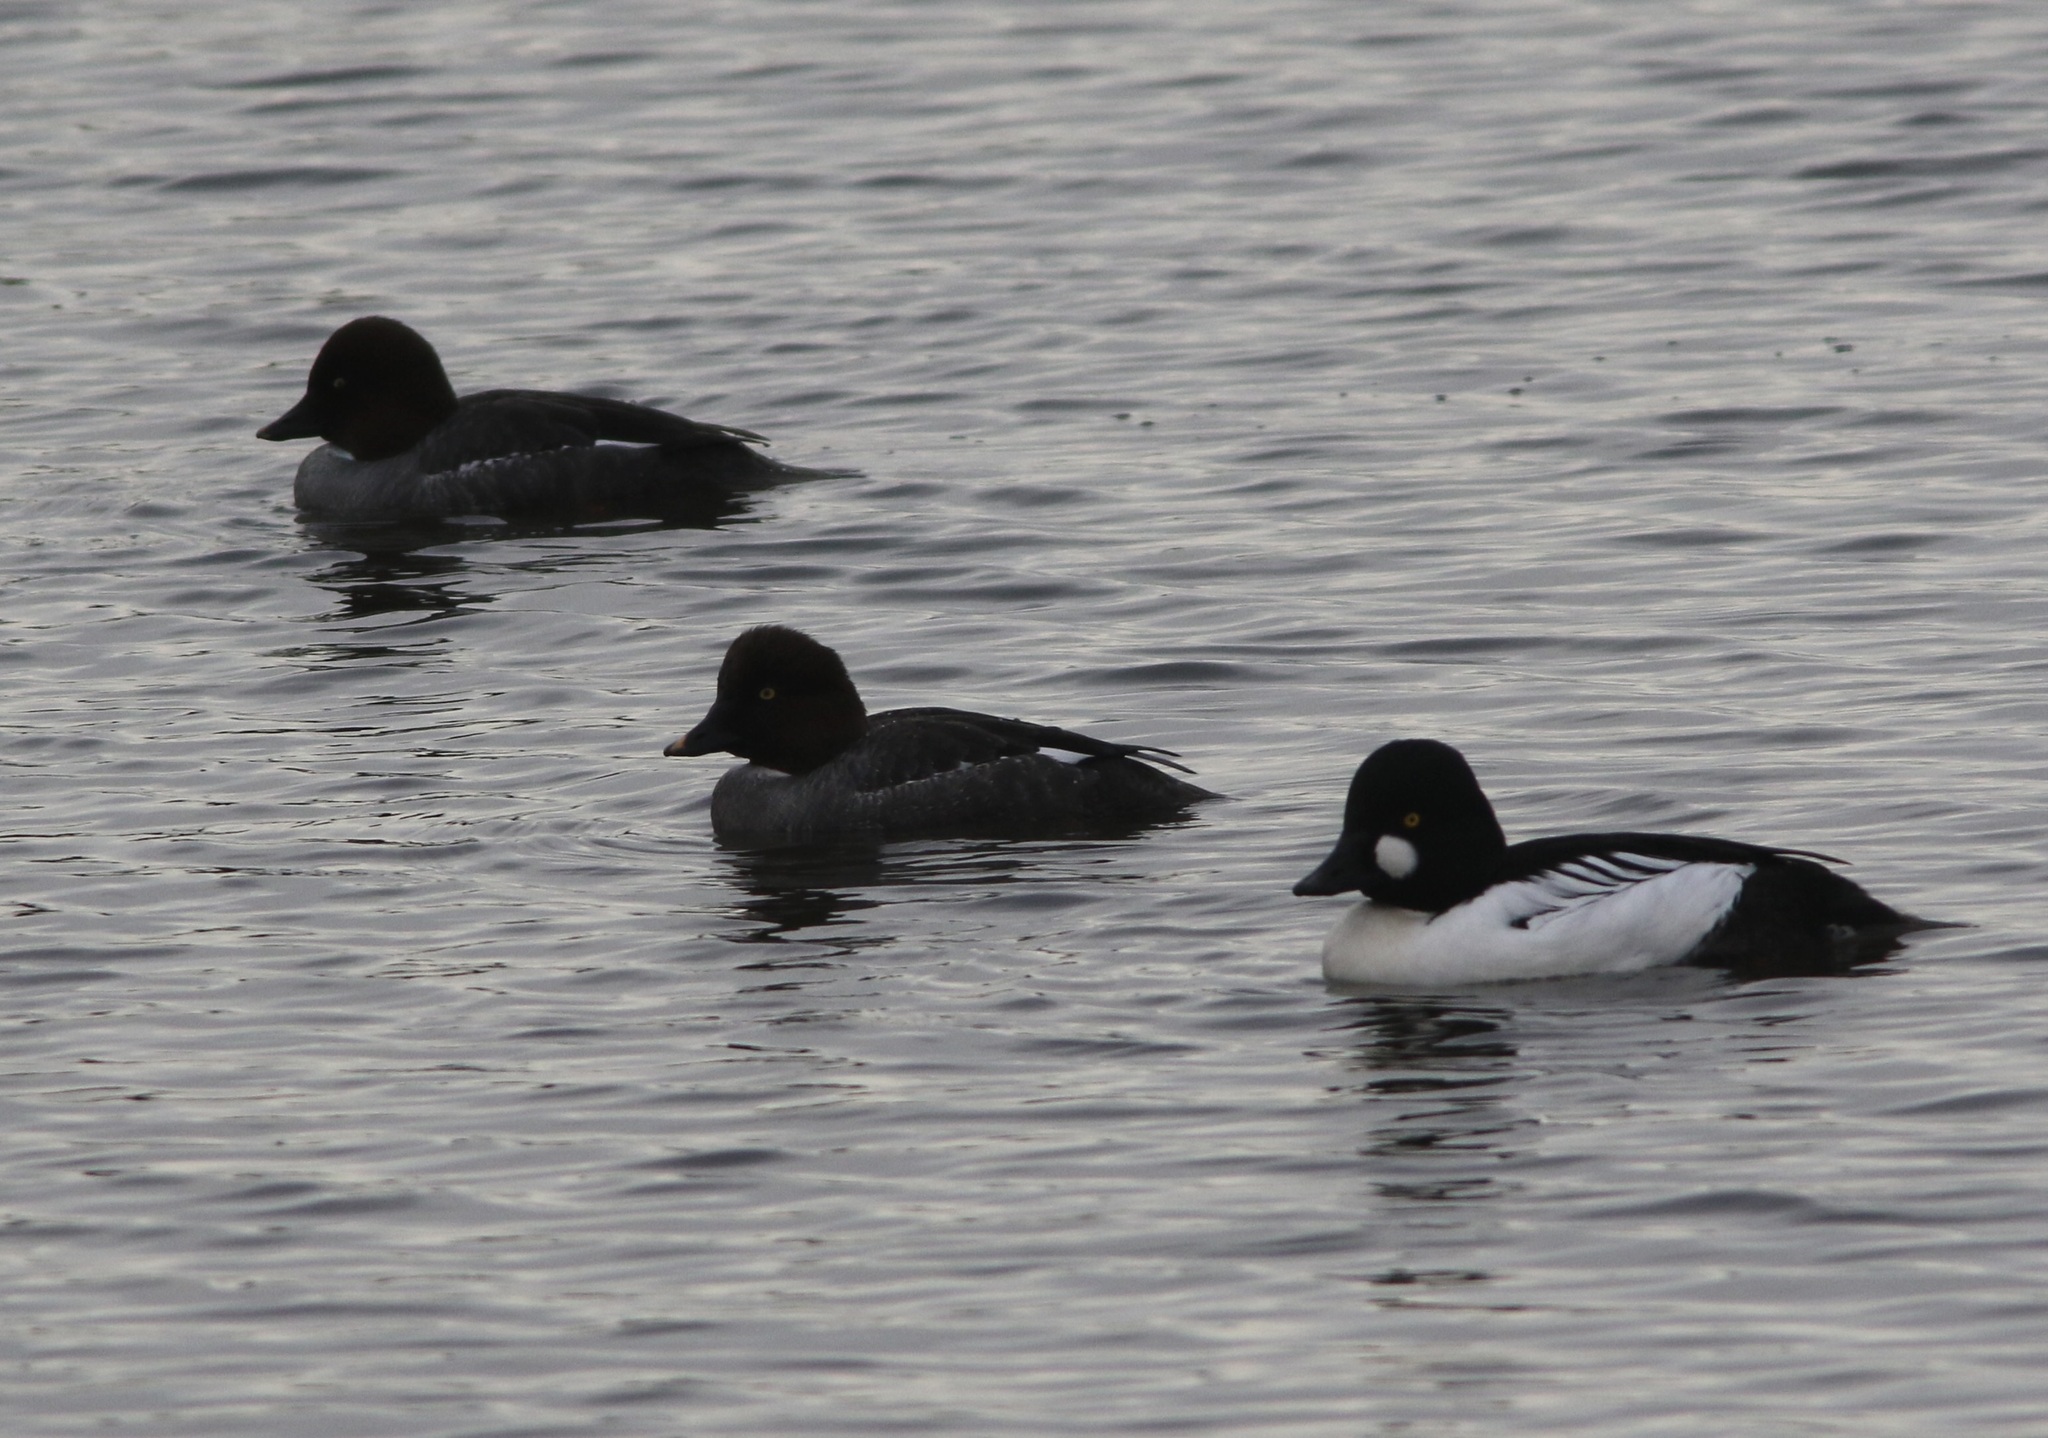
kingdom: Animalia
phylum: Chordata
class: Aves
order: Anseriformes
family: Anatidae
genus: Bucephala
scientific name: Bucephala clangula
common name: Common goldeneye
